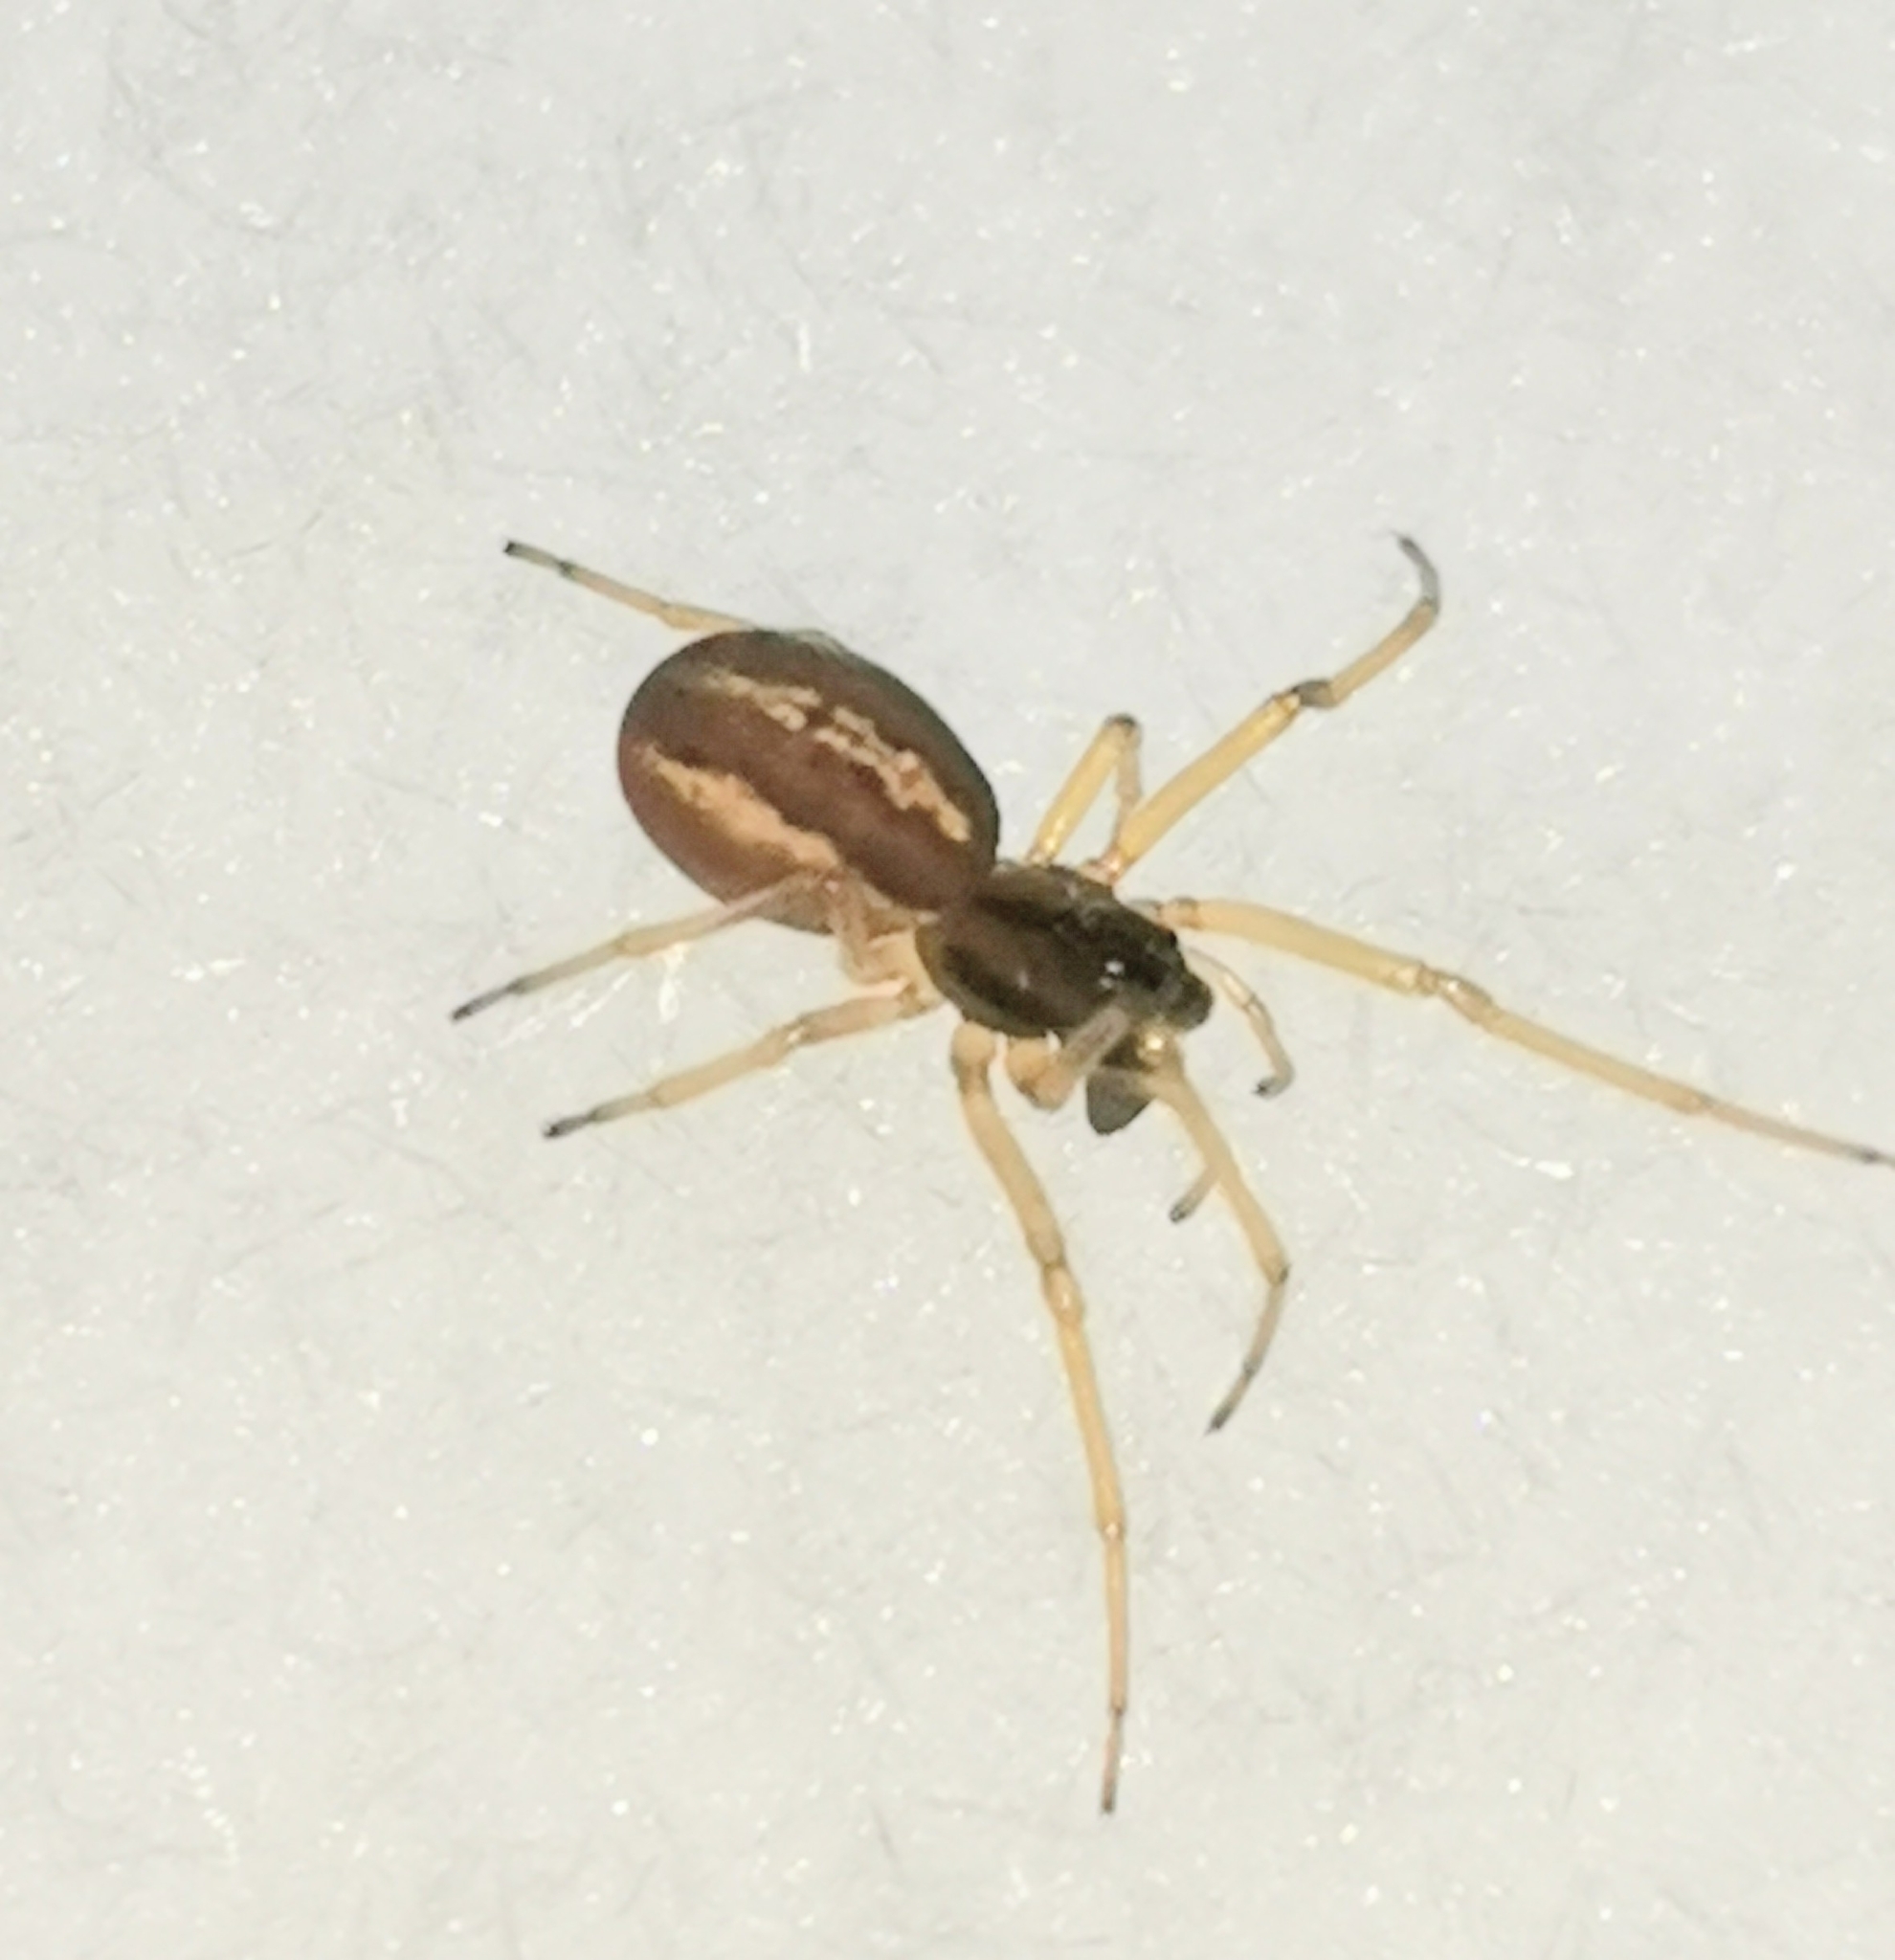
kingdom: Animalia
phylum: Arthropoda
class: Arachnida
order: Araneae
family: Tetragnathidae
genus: Pachygnatha
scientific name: Pachygnatha clercki
